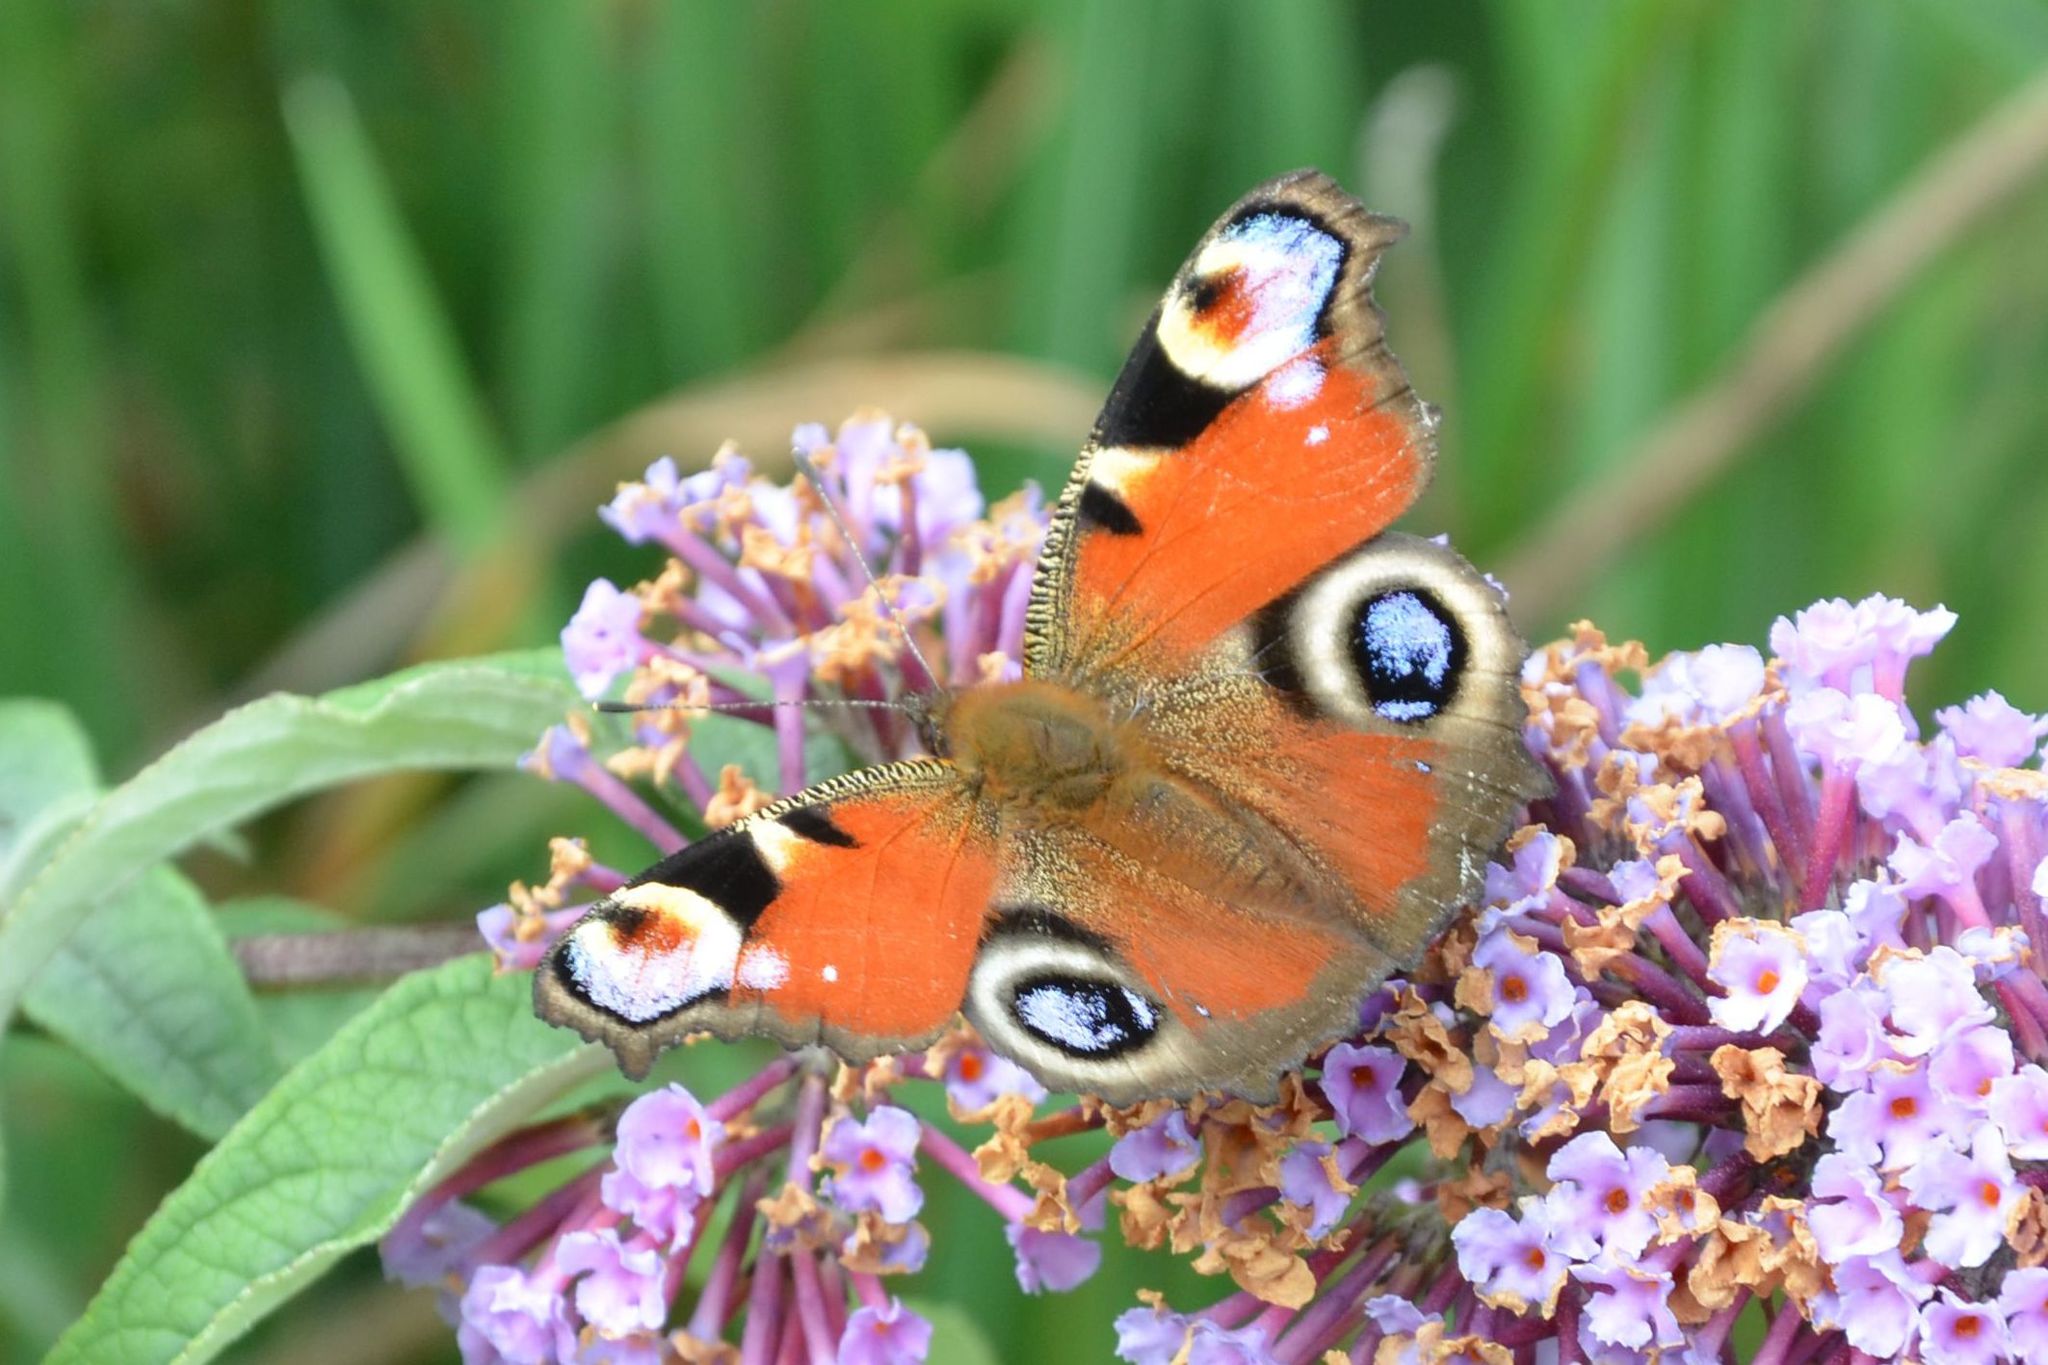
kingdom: Animalia
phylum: Arthropoda
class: Insecta
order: Lepidoptera
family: Nymphalidae
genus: Aglais
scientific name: Aglais io
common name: Peacock
